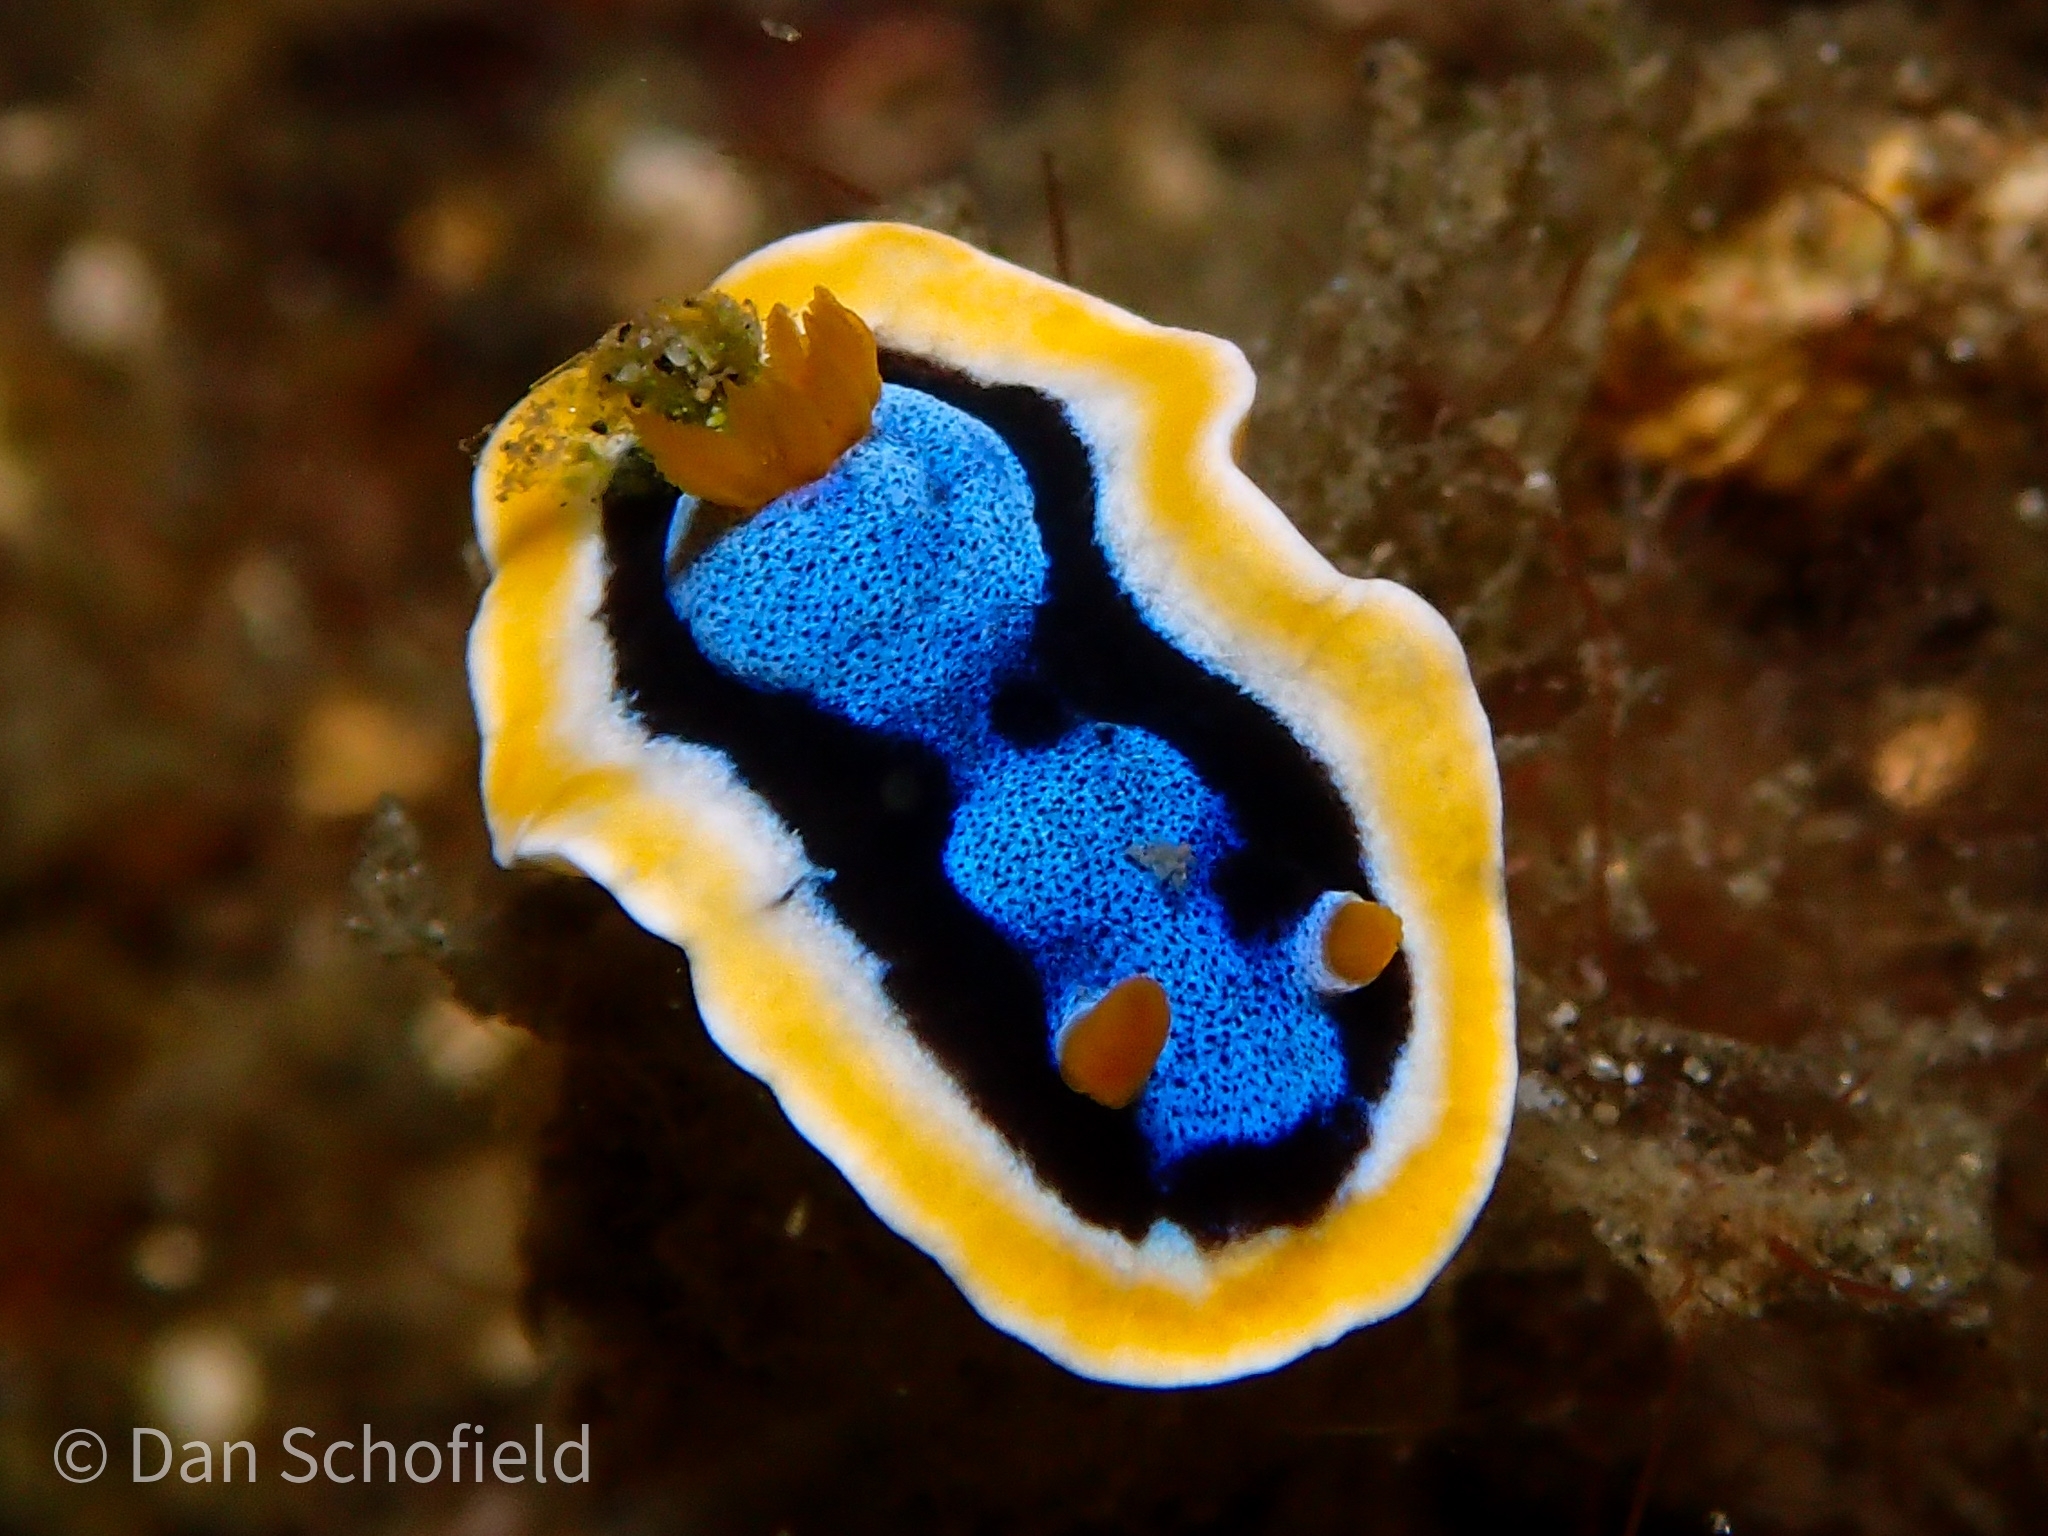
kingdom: Animalia
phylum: Mollusca
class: Gastropoda
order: Nudibranchia
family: Chromodorididae
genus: Chromodoris
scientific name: Chromodoris annae
